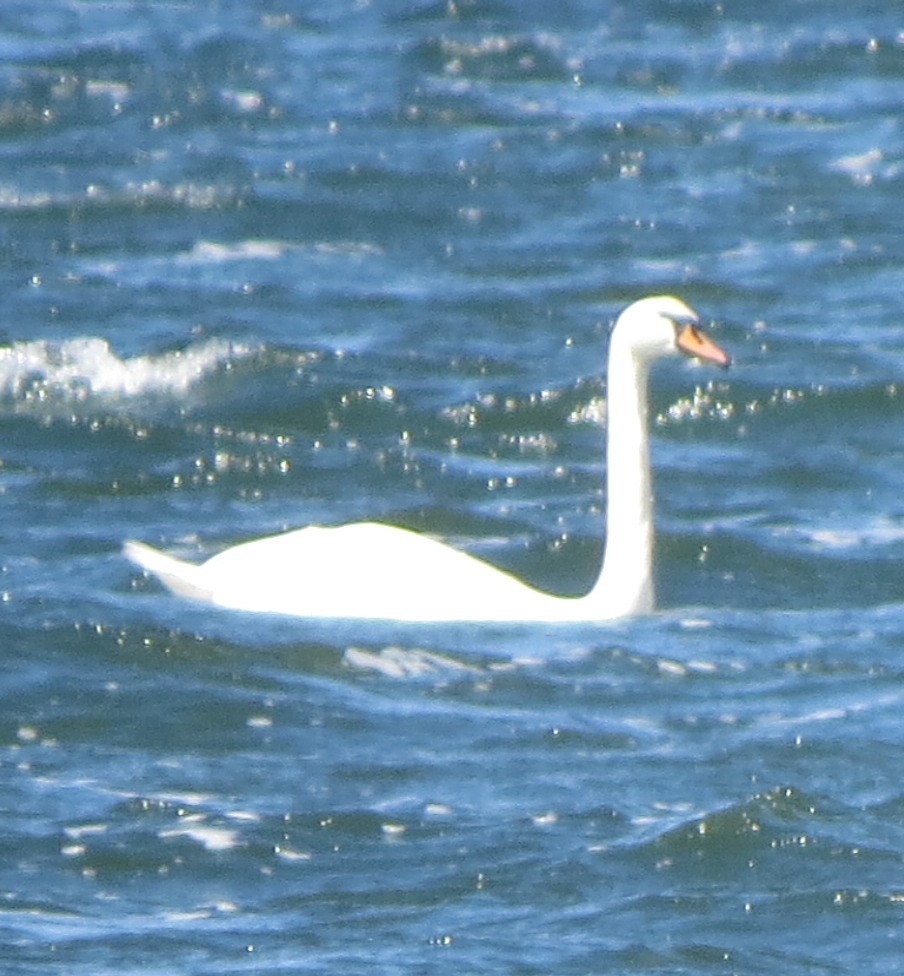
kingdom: Animalia
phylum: Chordata
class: Aves
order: Anseriformes
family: Anatidae
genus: Cygnus
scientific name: Cygnus olor
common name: Mute swan
